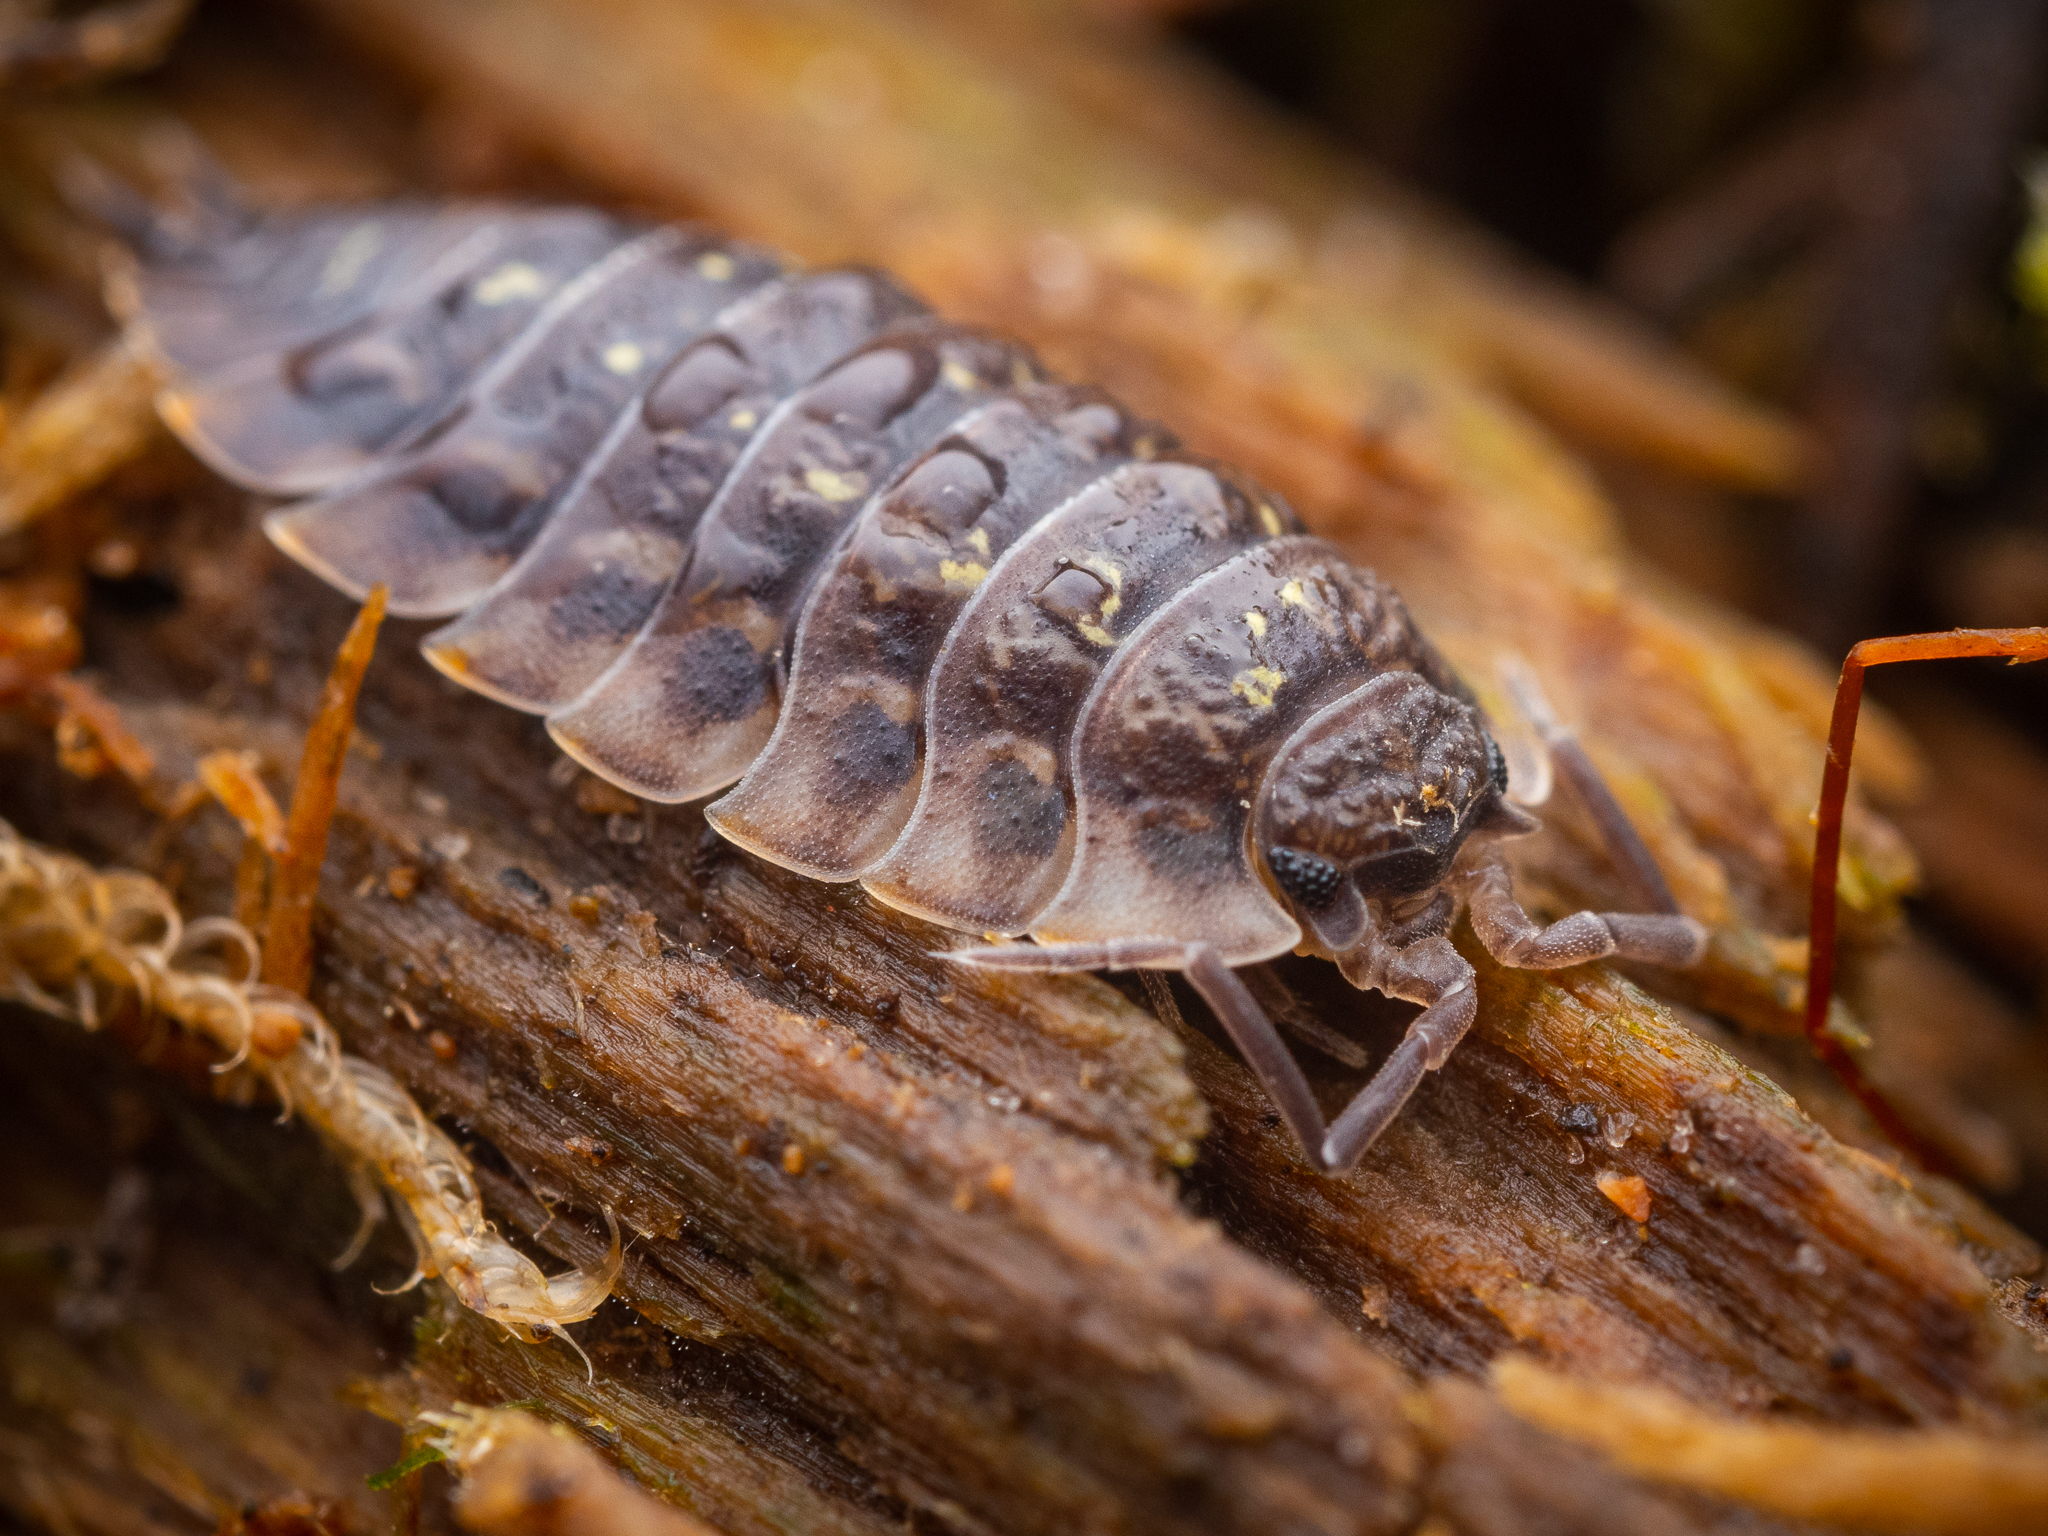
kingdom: Animalia
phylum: Arthropoda
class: Malacostraca
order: Isopoda
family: Oniscidae
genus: Oniscus
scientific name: Oniscus asellus
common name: Common shiny woodlouse
